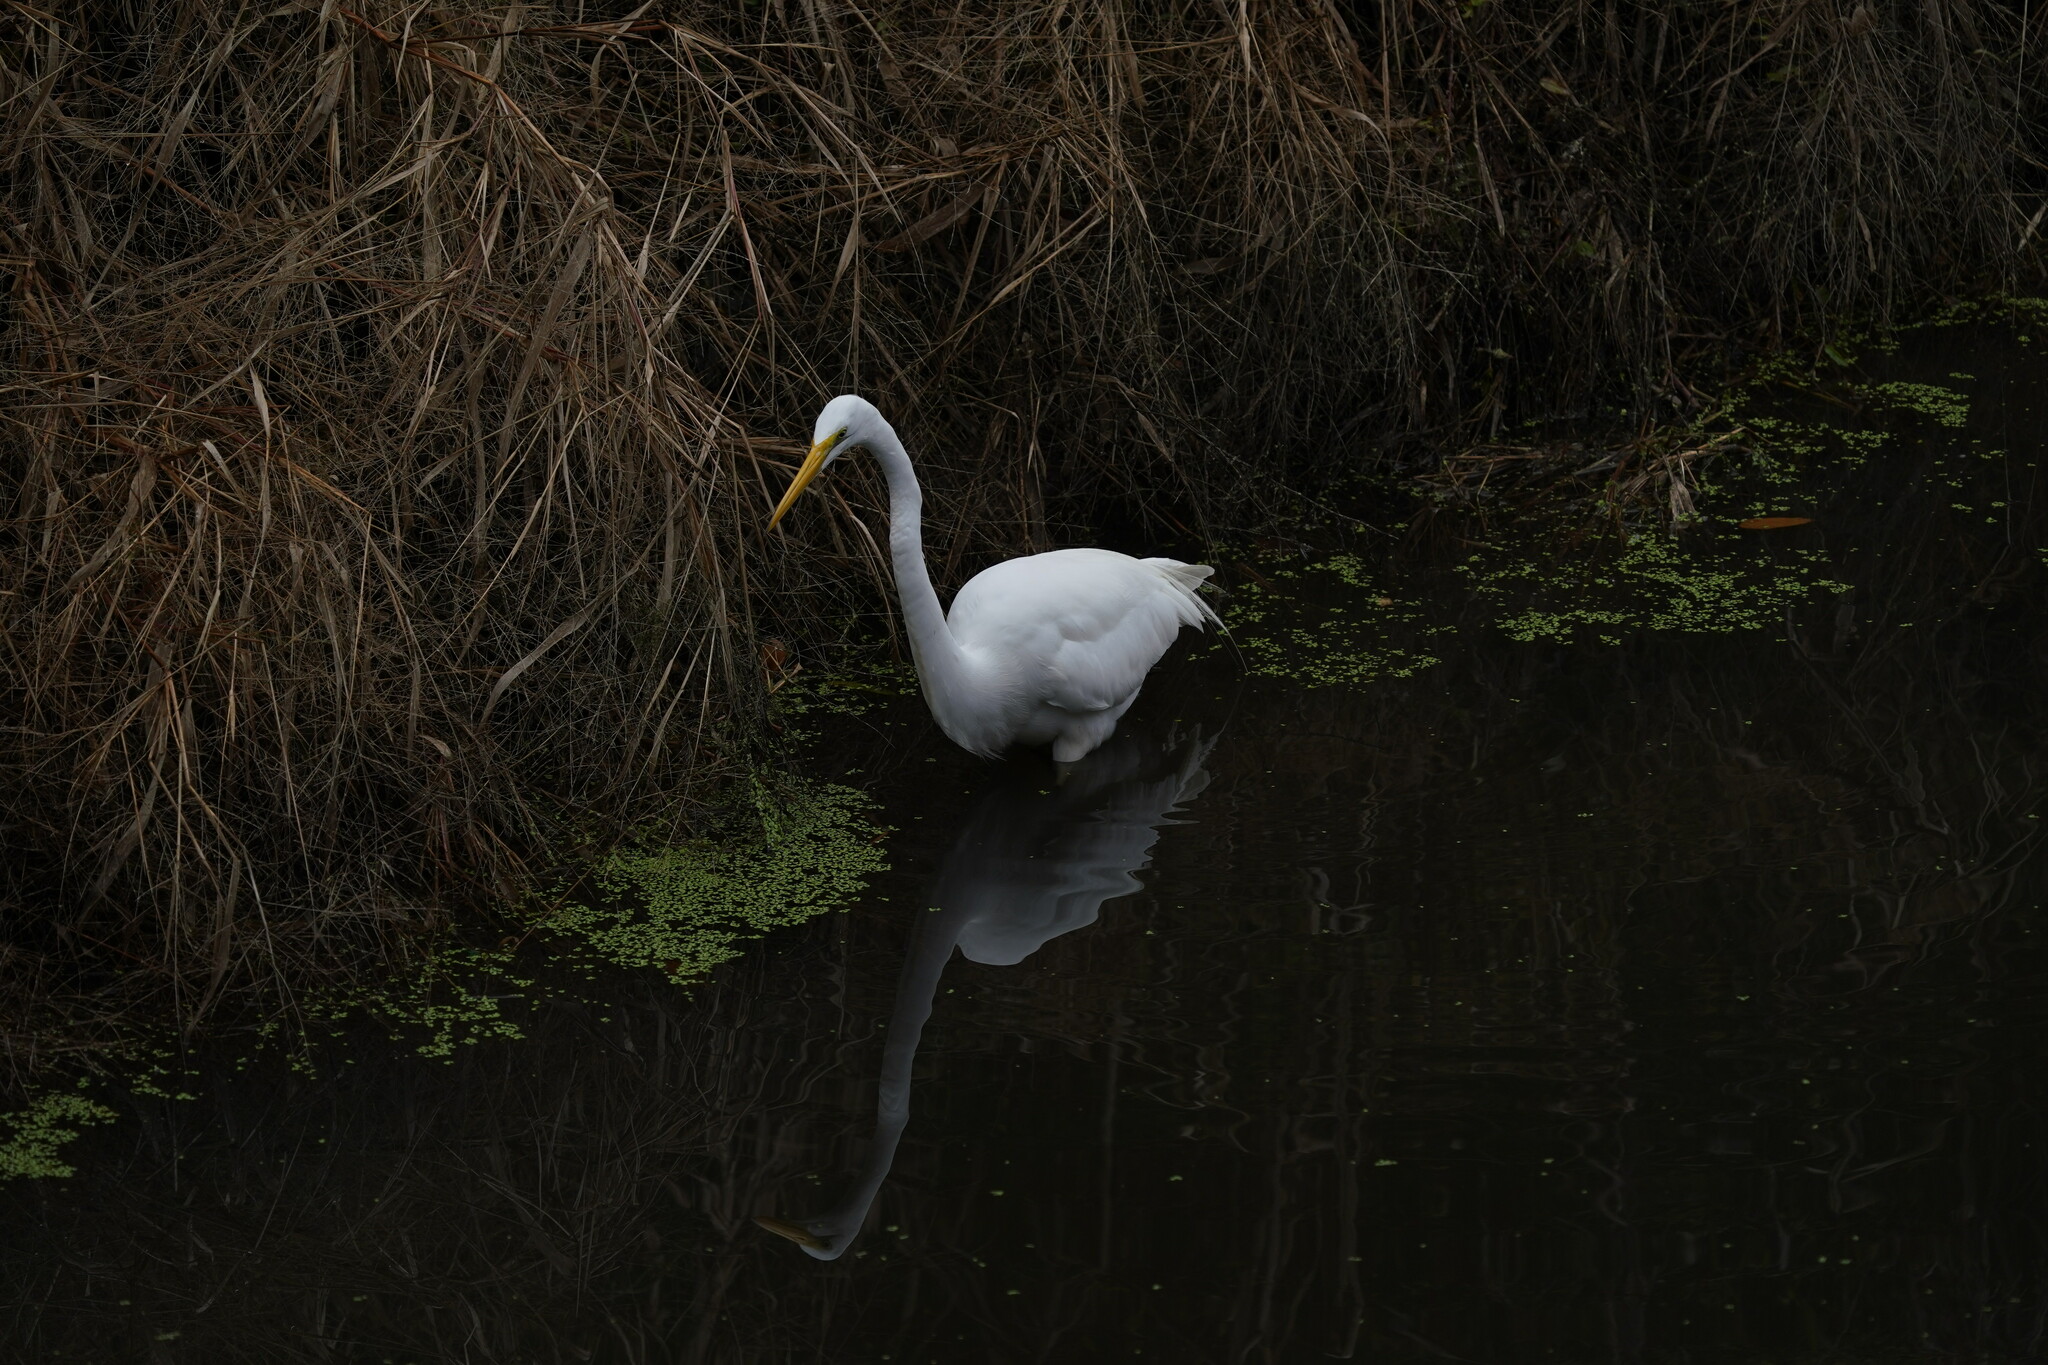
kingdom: Animalia
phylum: Chordata
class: Aves
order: Pelecaniformes
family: Ardeidae
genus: Ardea
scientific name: Ardea alba
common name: Great egret
